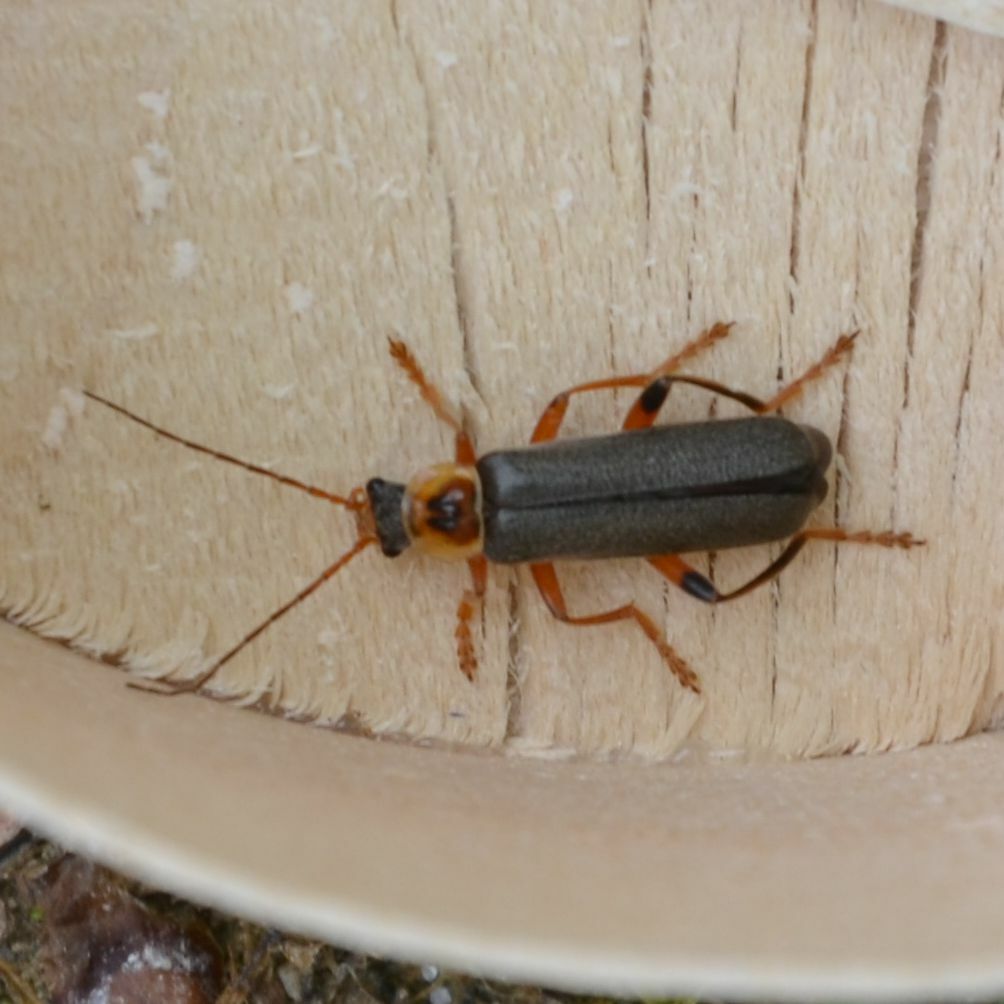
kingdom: Animalia
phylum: Arthropoda
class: Insecta
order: Coleoptera
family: Cantharidae
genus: Cantharis
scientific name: Cantharis nigricans
